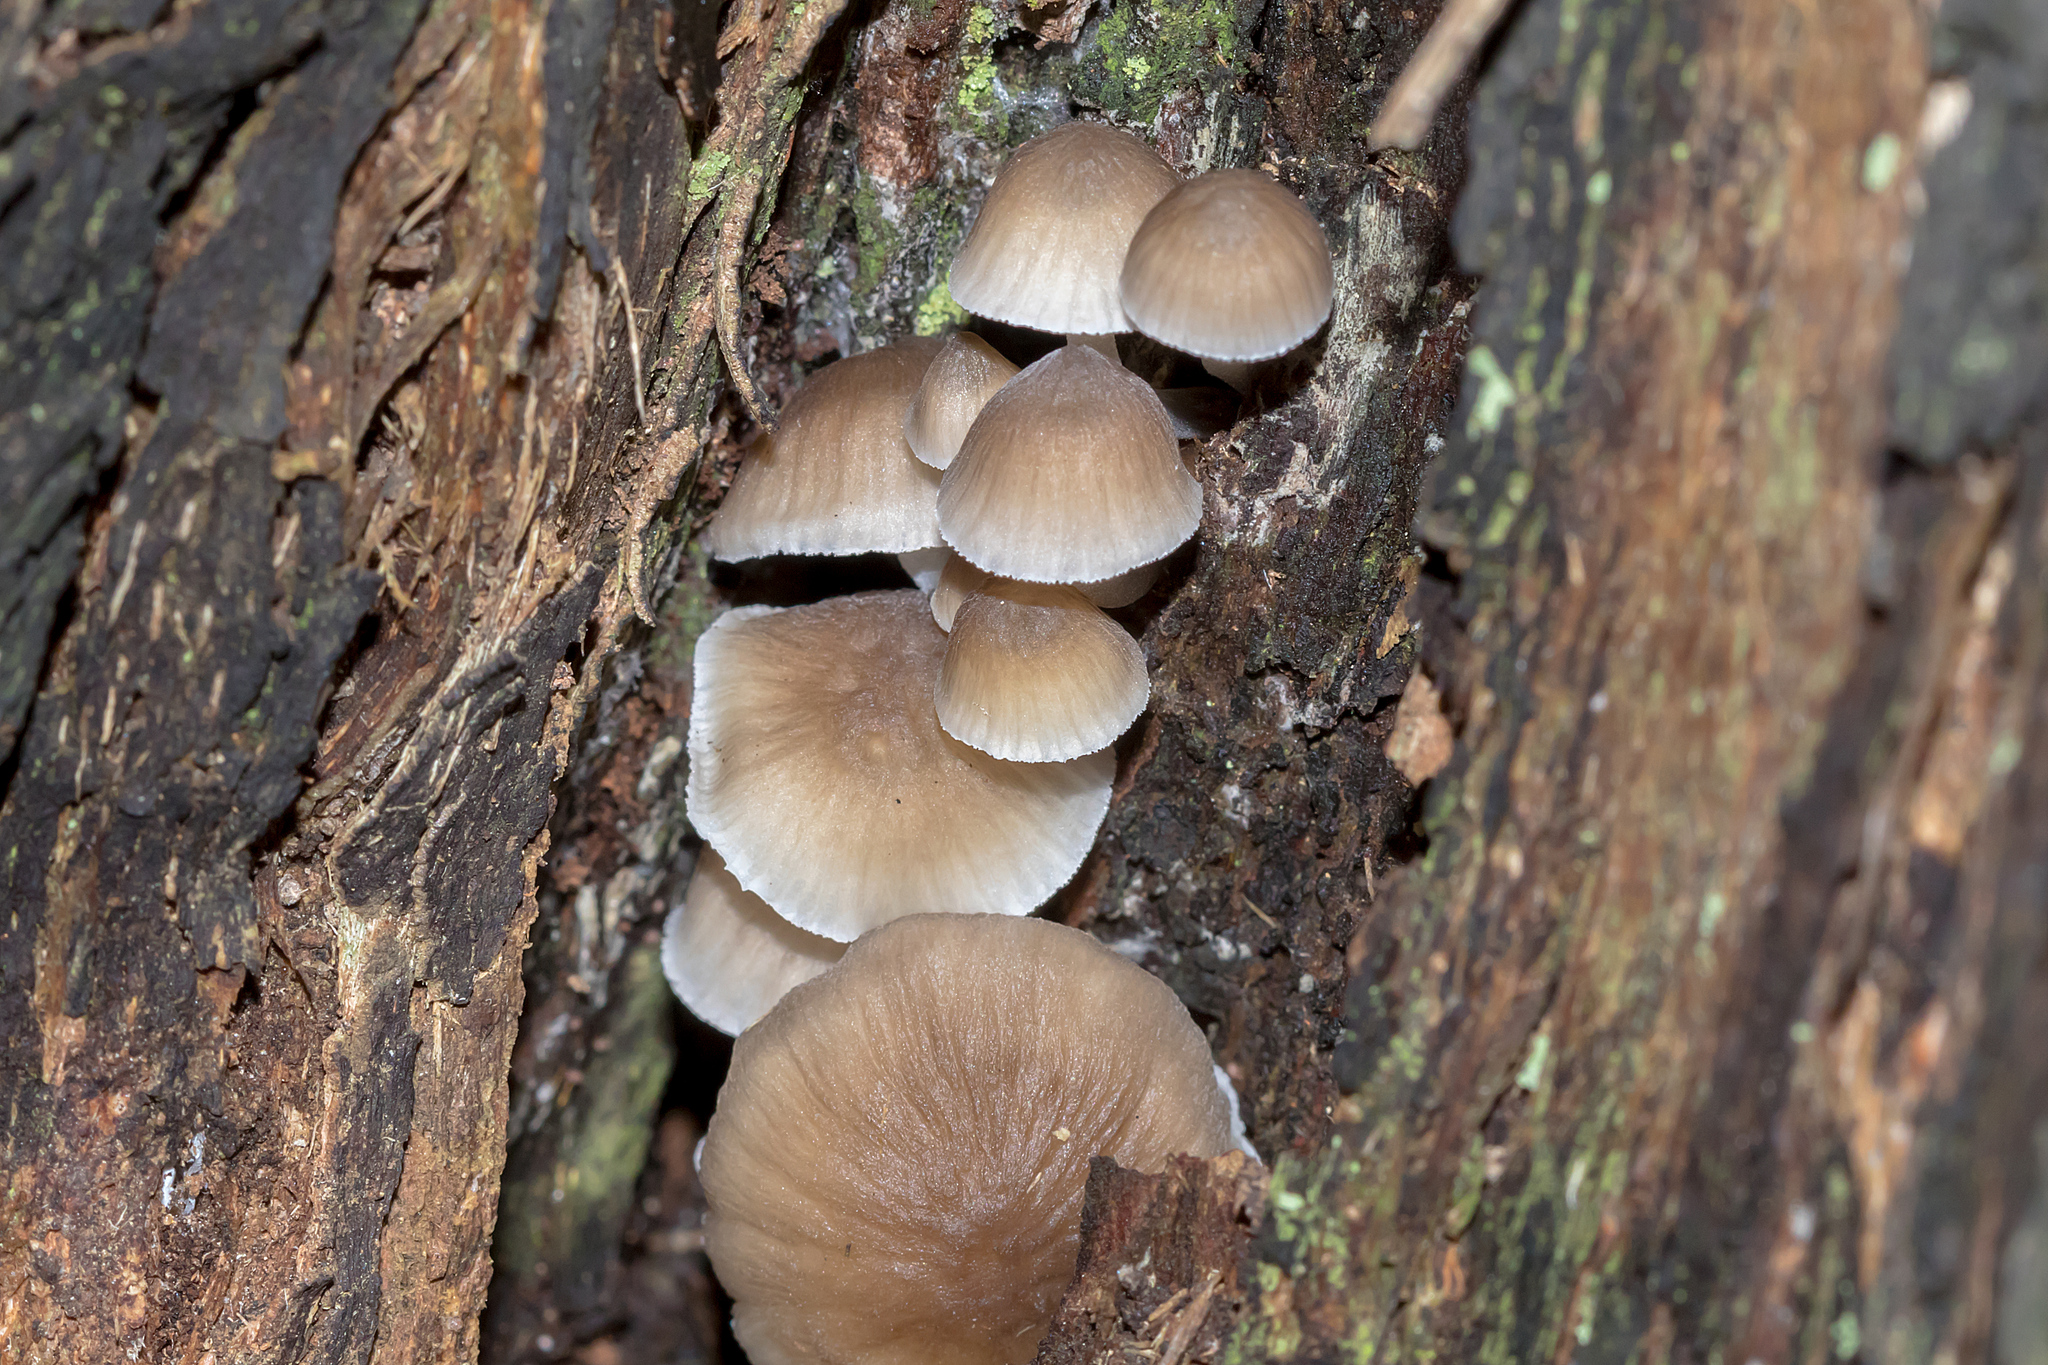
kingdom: Fungi
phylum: Basidiomycota
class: Agaricomycetes
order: Agaricales
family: Mycenaceae
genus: Mycena
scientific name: Mycena subgalericulata
